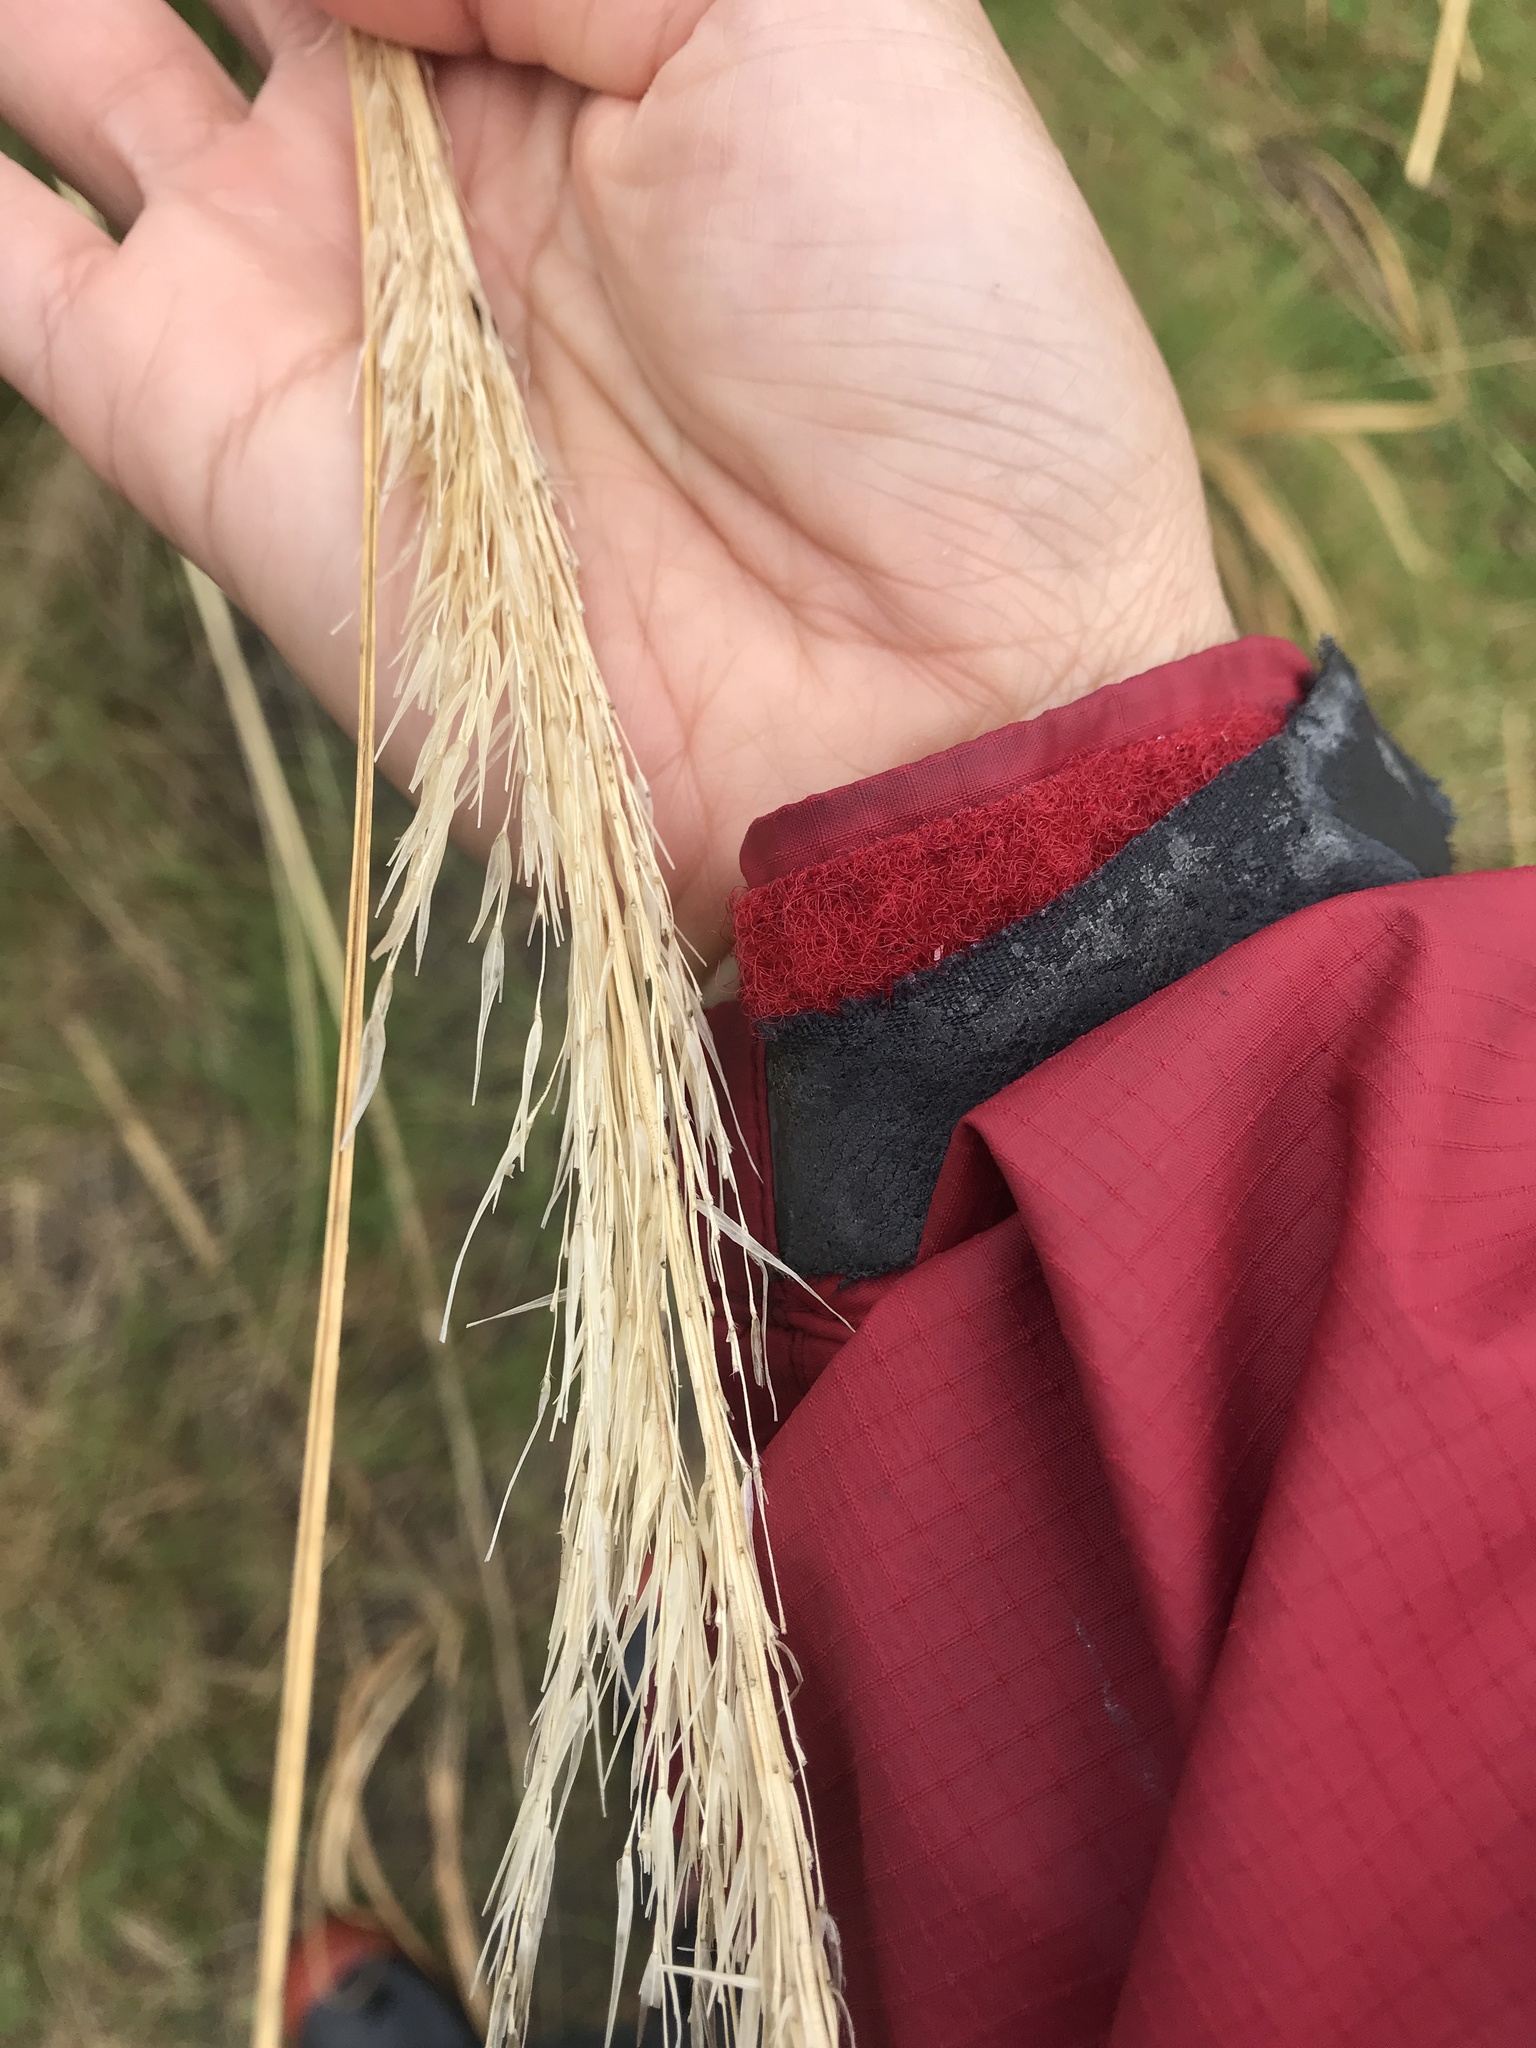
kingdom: Plantae
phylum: Tracheophyta
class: Liliopsida
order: Poales
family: Poaceae
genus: Austroderia
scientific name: Austroderia richardii
